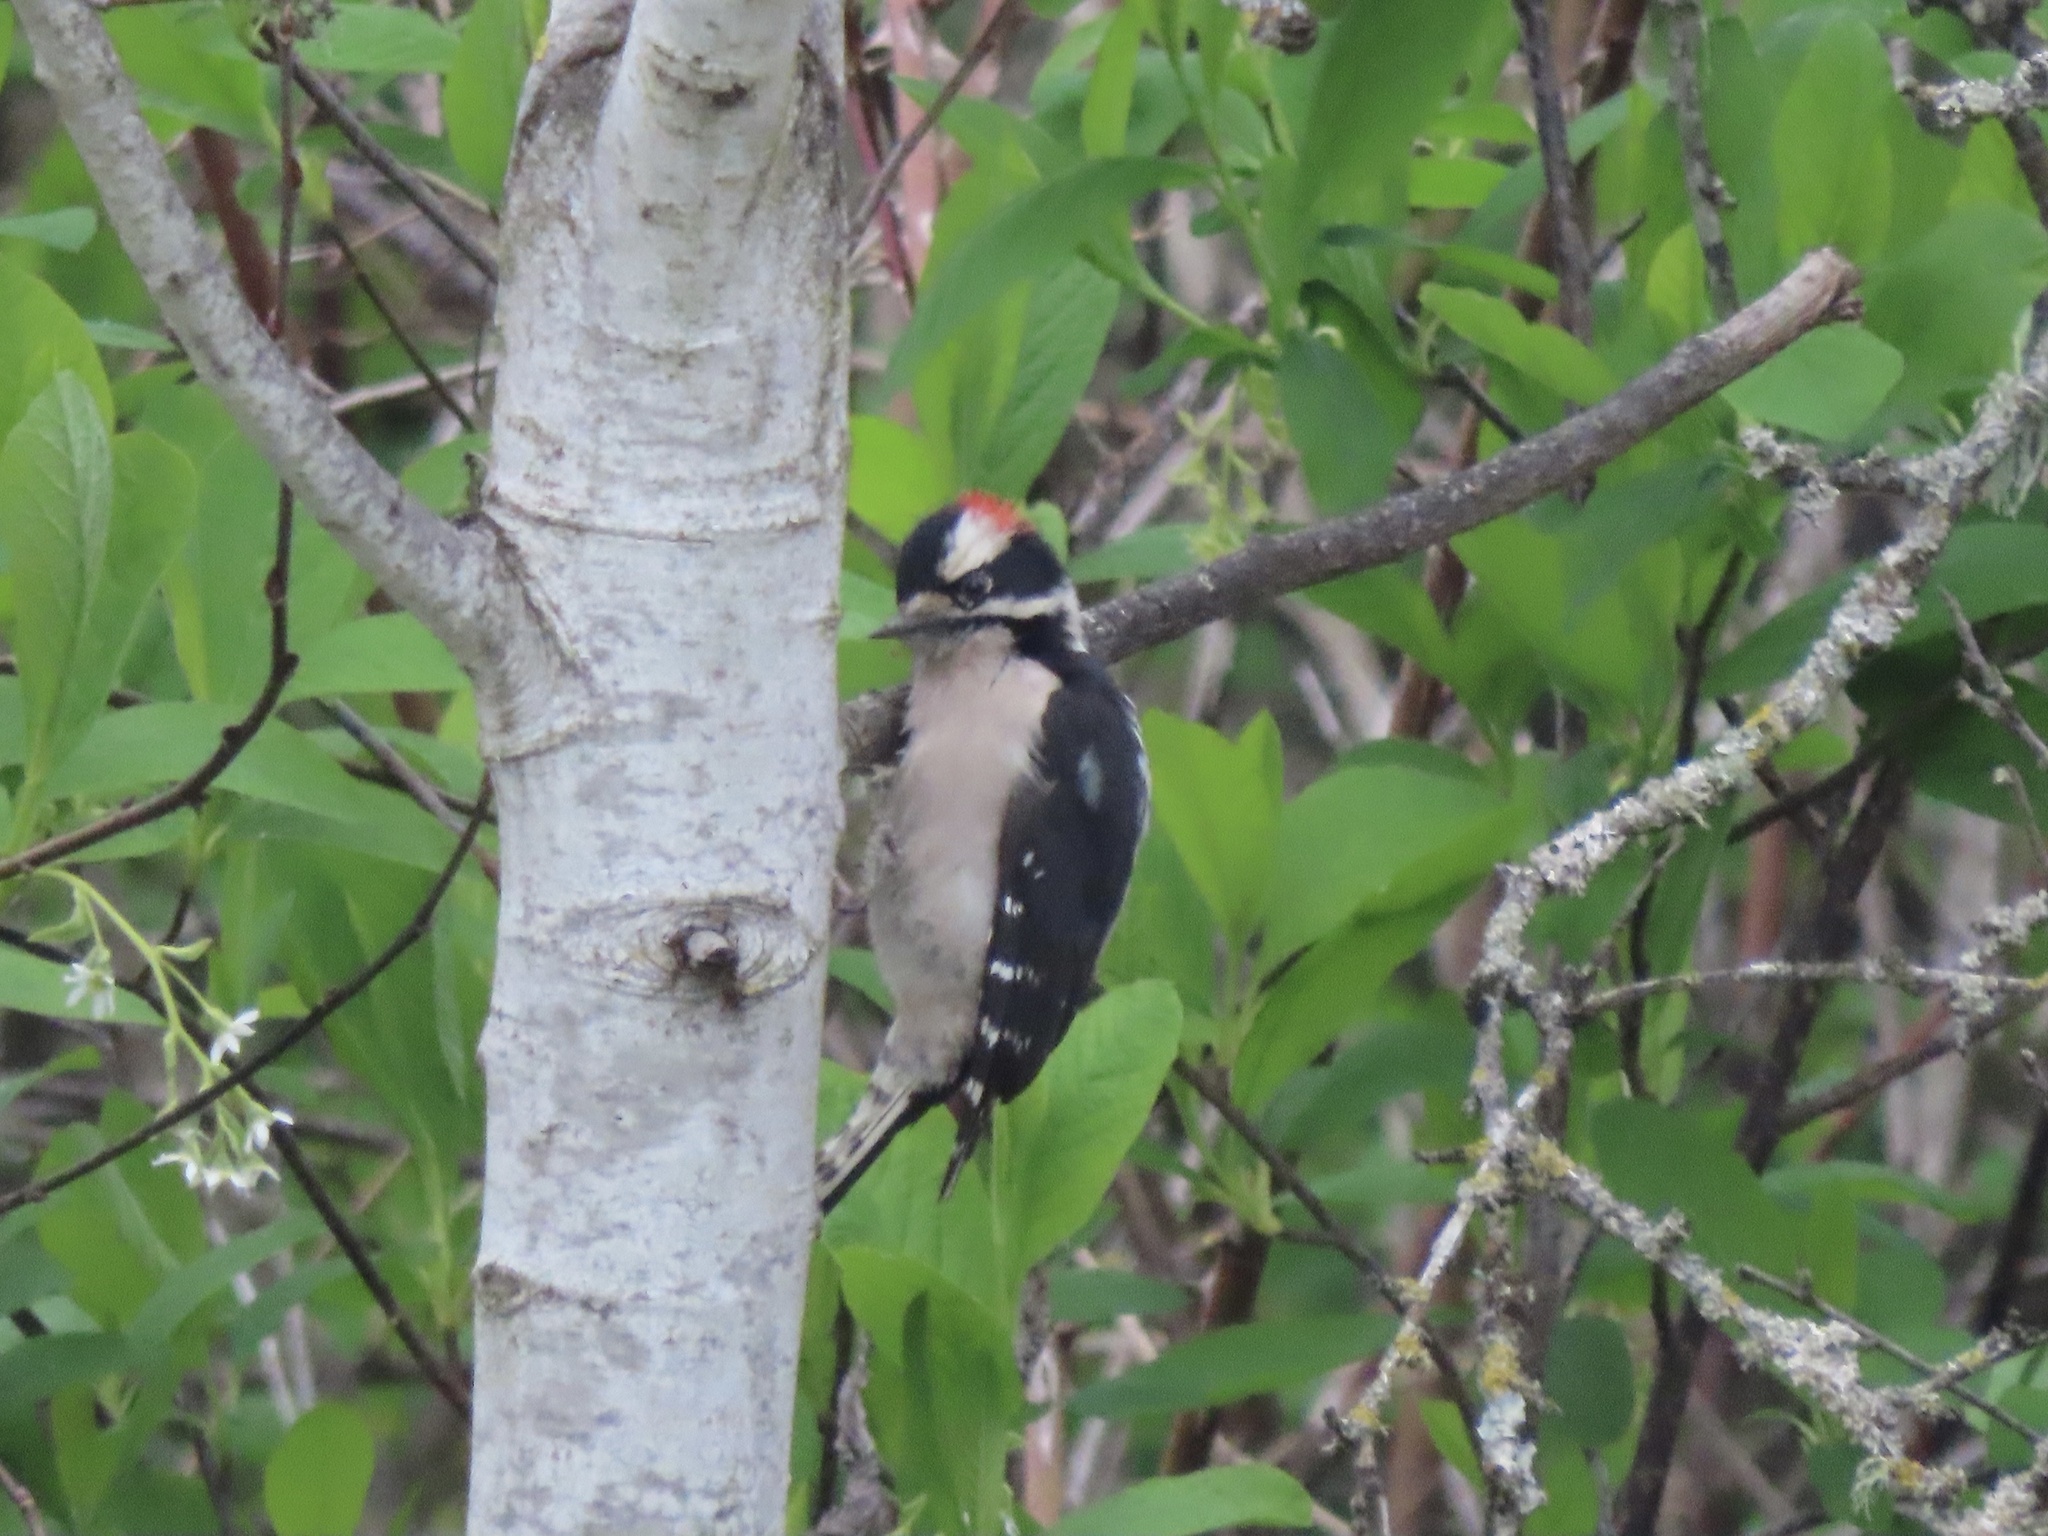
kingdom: Animalia
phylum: Chordata
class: Aves
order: Piciformes
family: Picidae
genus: Dryobates
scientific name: Dryobates pubescens
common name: Downy woodpecker
